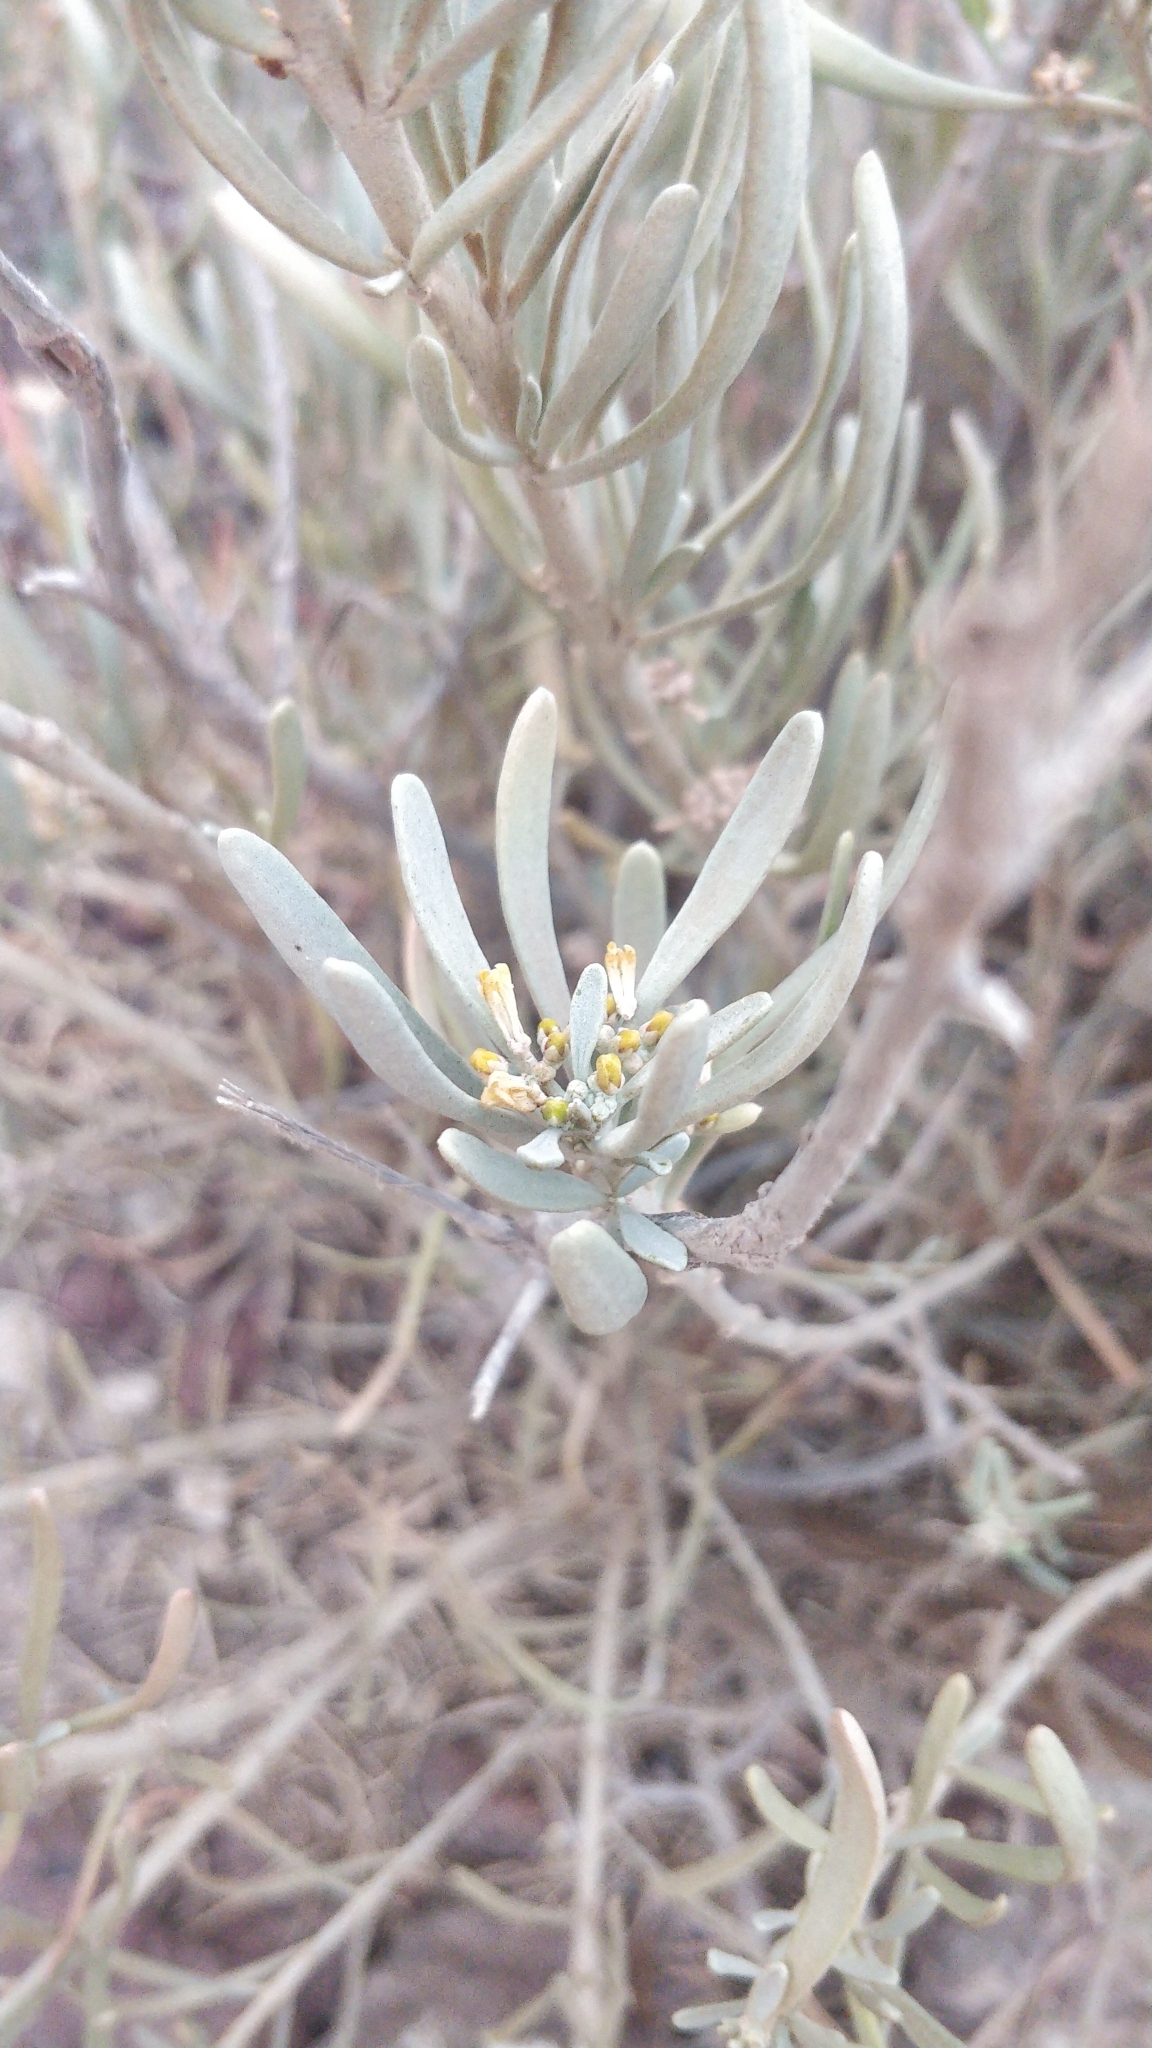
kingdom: Plantae
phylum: Tracheophyta
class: Magnoliopsida
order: Sapindales
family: Rutaceae
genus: Cneorum
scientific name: Cneorum pulverulentum
